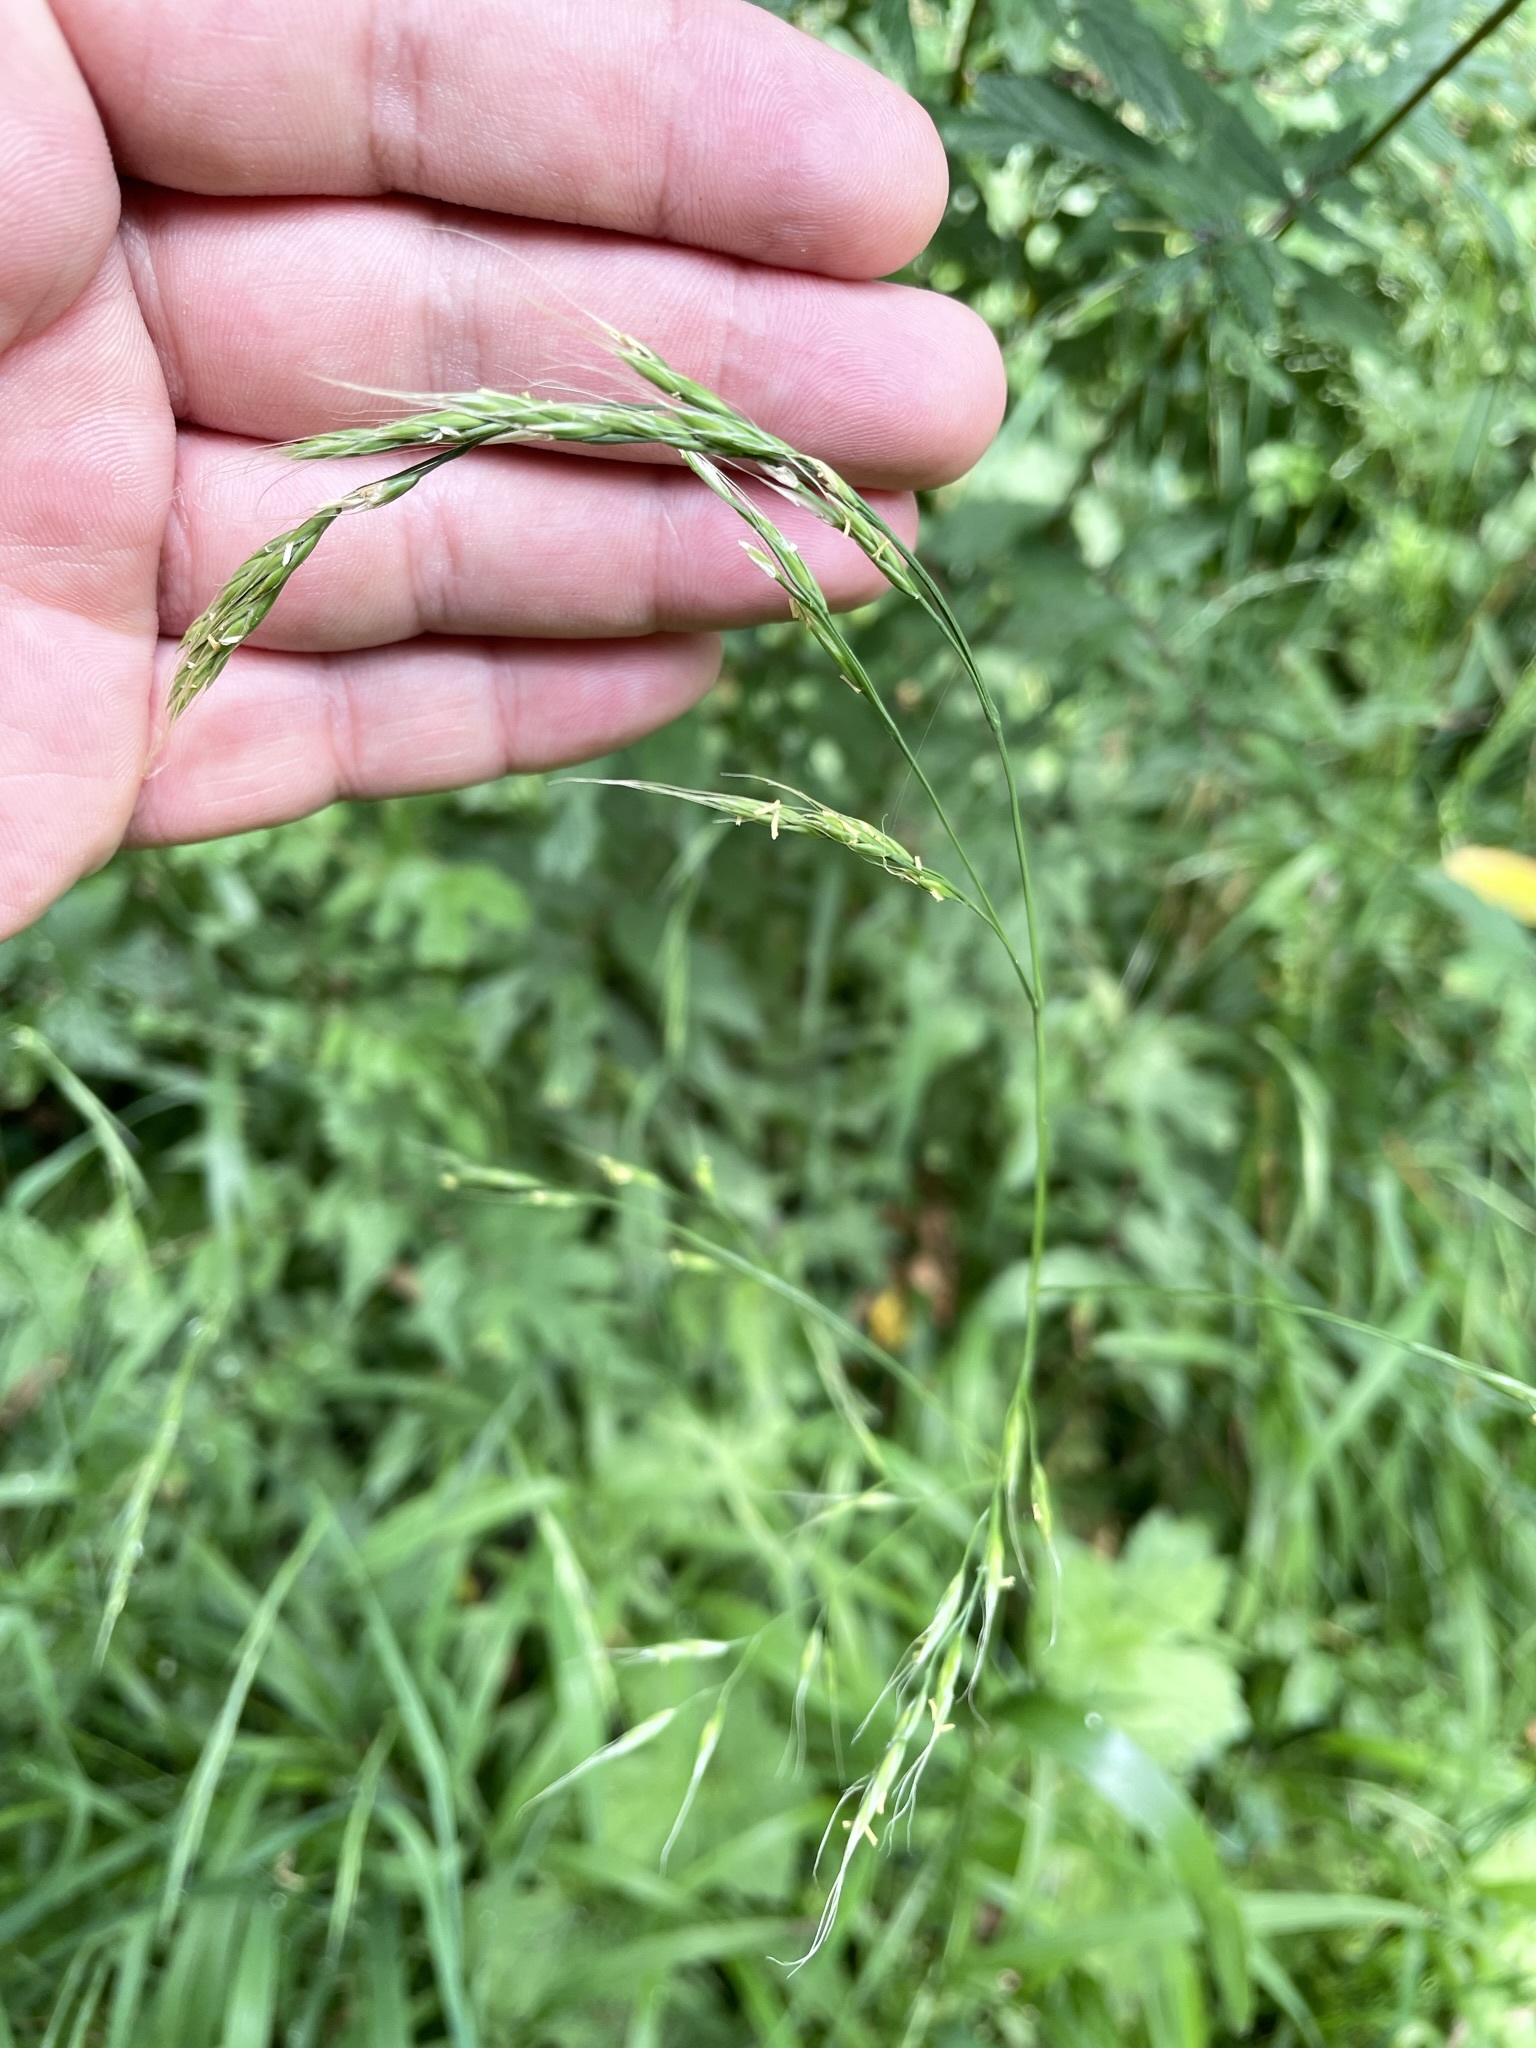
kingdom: Plantae
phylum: Tracheophyta
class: Liliopsida
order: Poales
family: Poaceae
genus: Lolium
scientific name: Lolium giganteum
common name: Giant fescue
